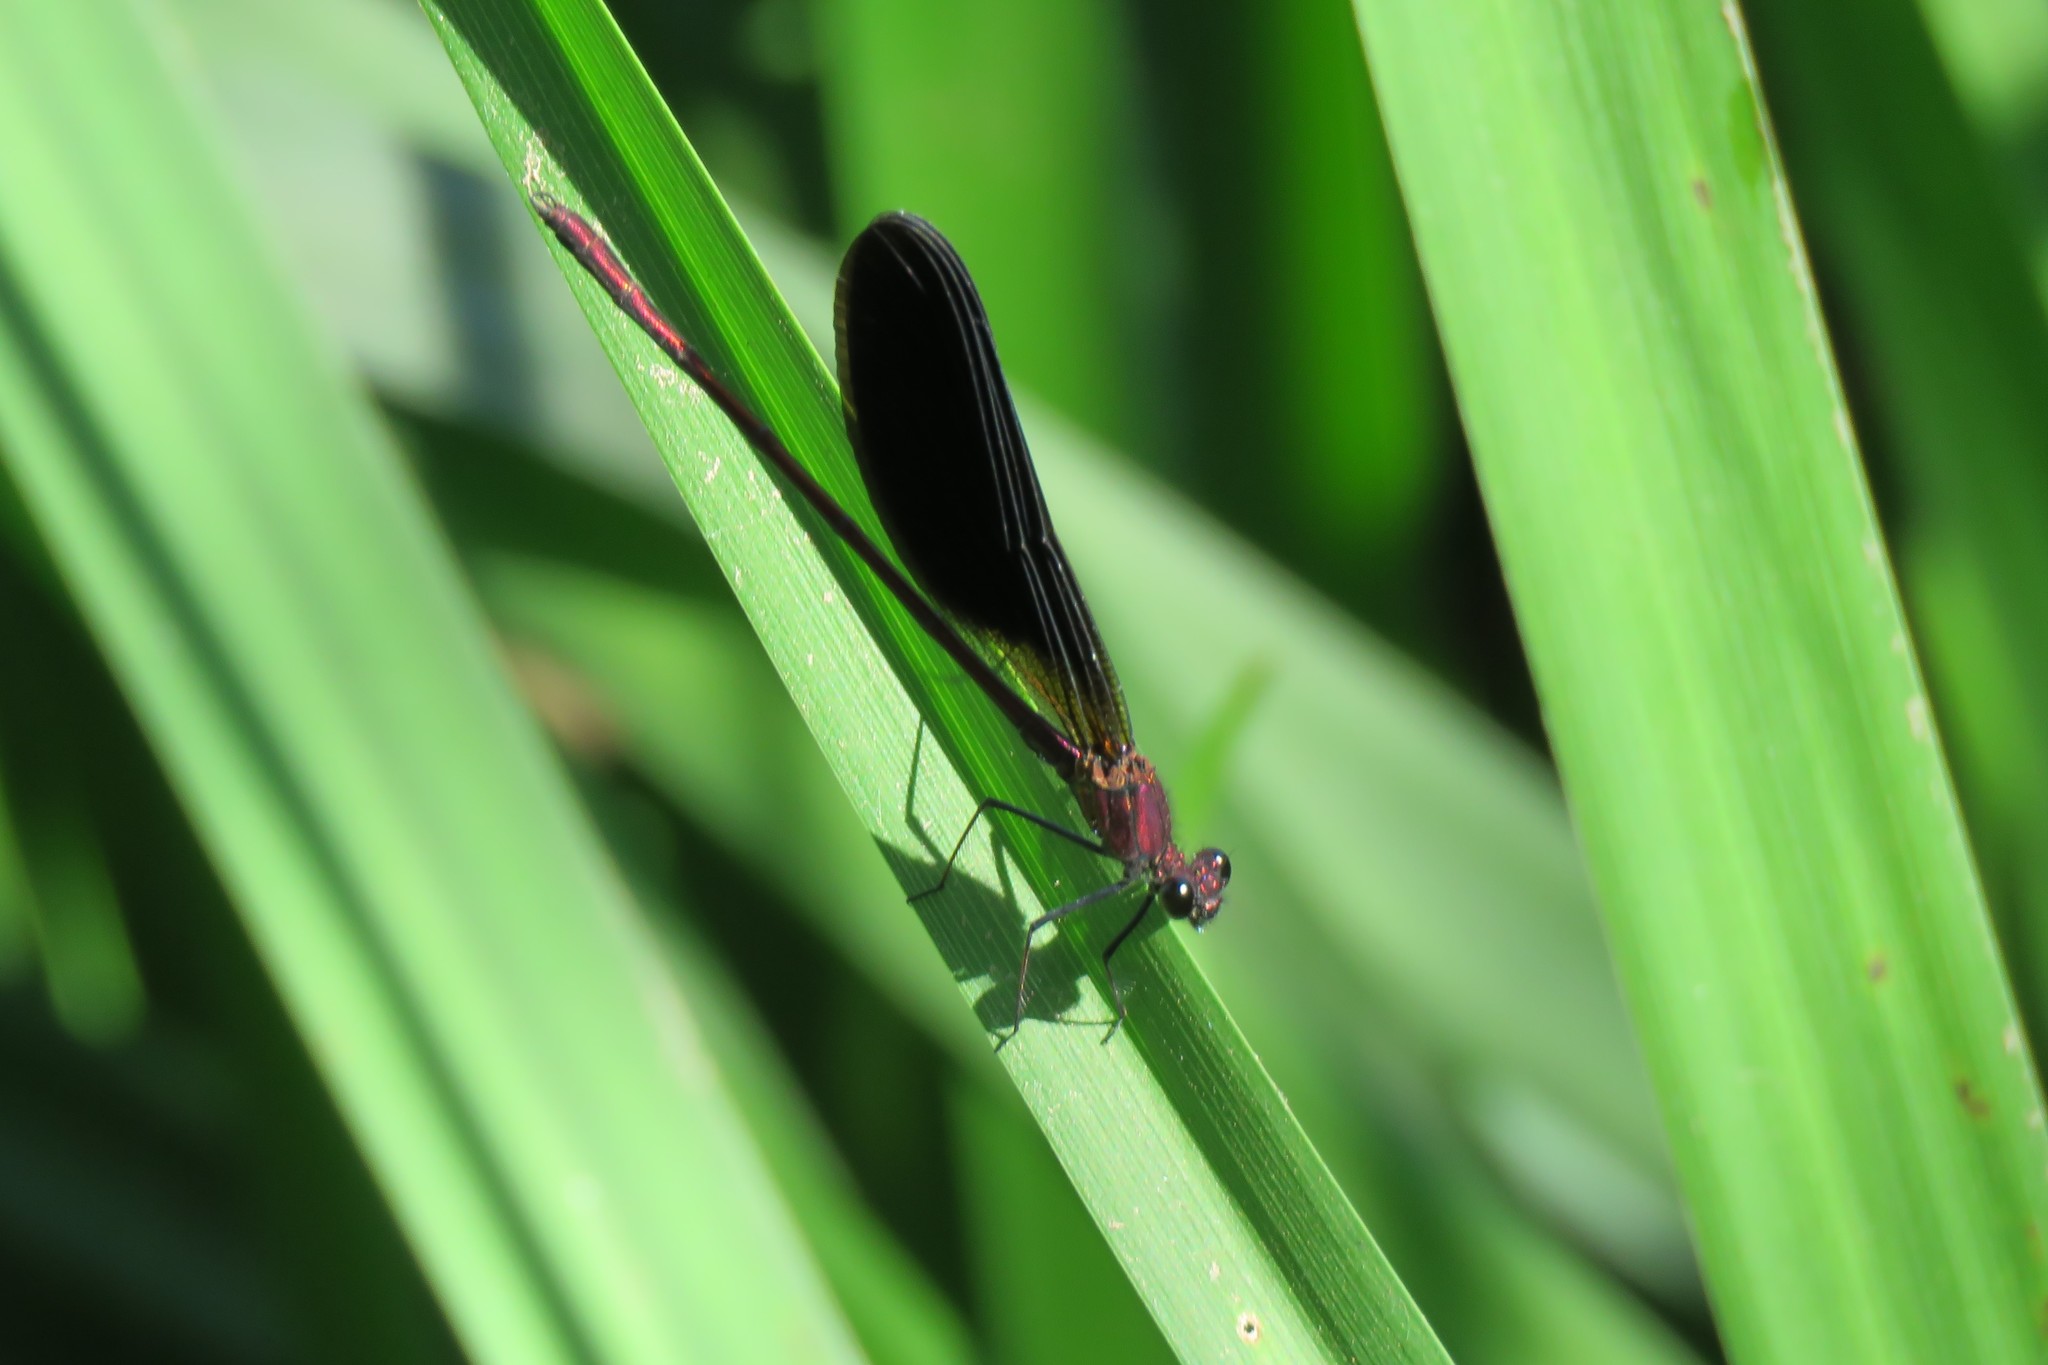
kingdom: Animalia
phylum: Arthropoda
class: Insecta
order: Odonata
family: Calopterygidae
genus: Calopteryx
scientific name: Calopteryx haemorrhoidalis
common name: Copper demoiselle
